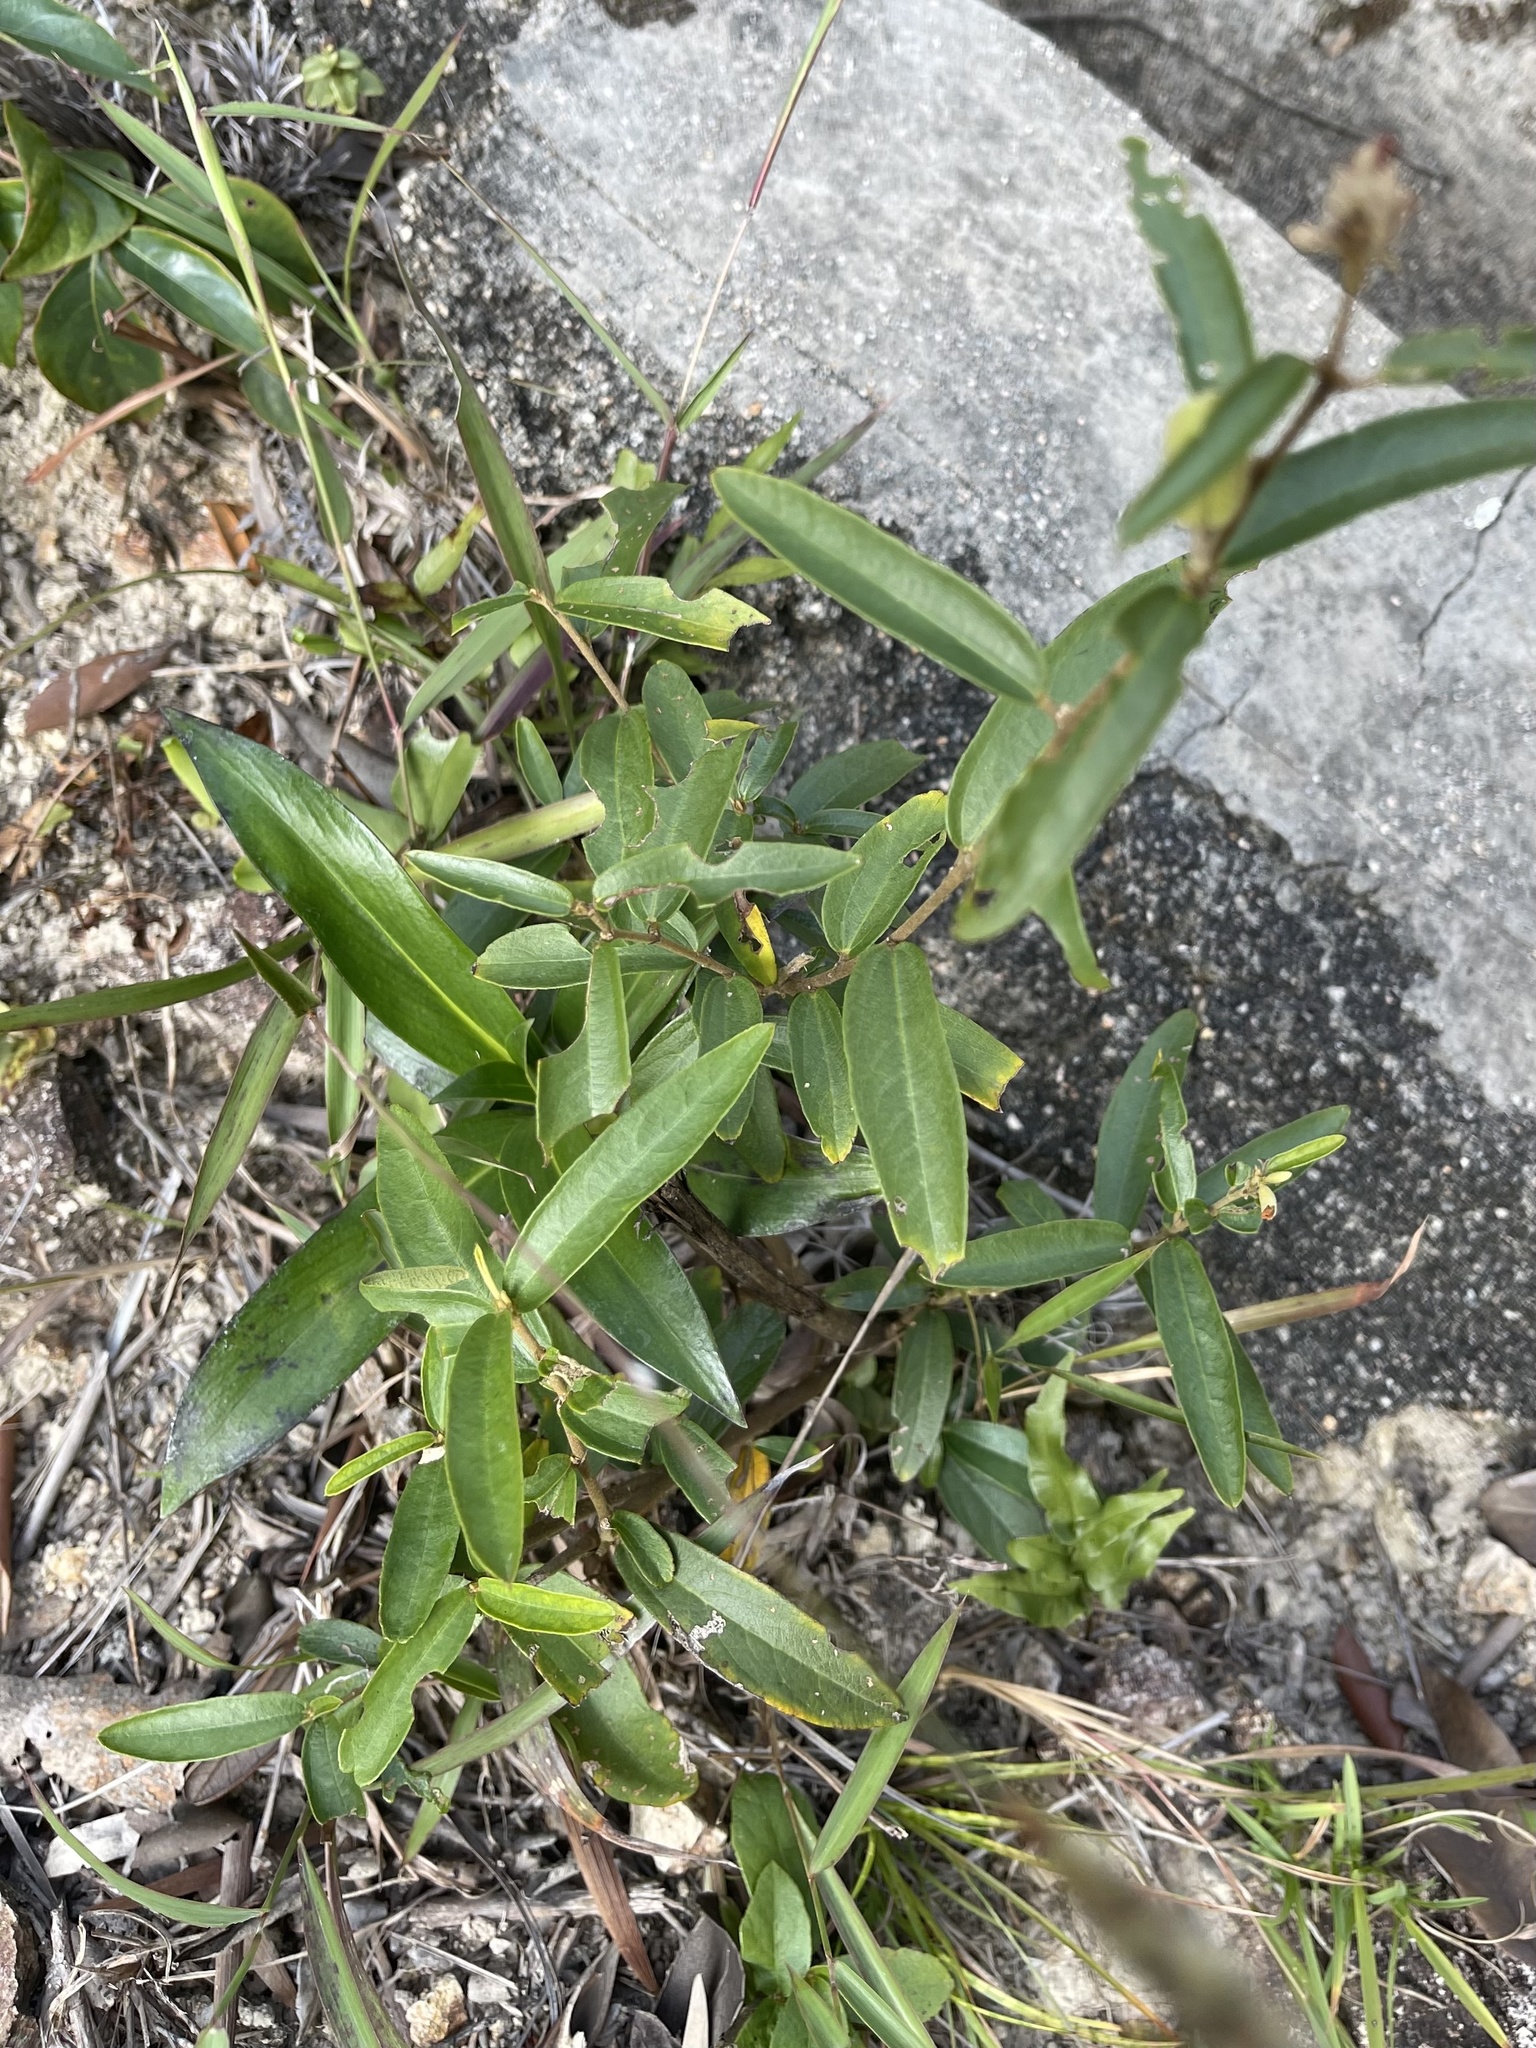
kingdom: Plantae
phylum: Tracheophyta
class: Magnoliopsida
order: Malvales
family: Malvaceae
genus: Helicteres
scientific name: Helicteres angustifolia
